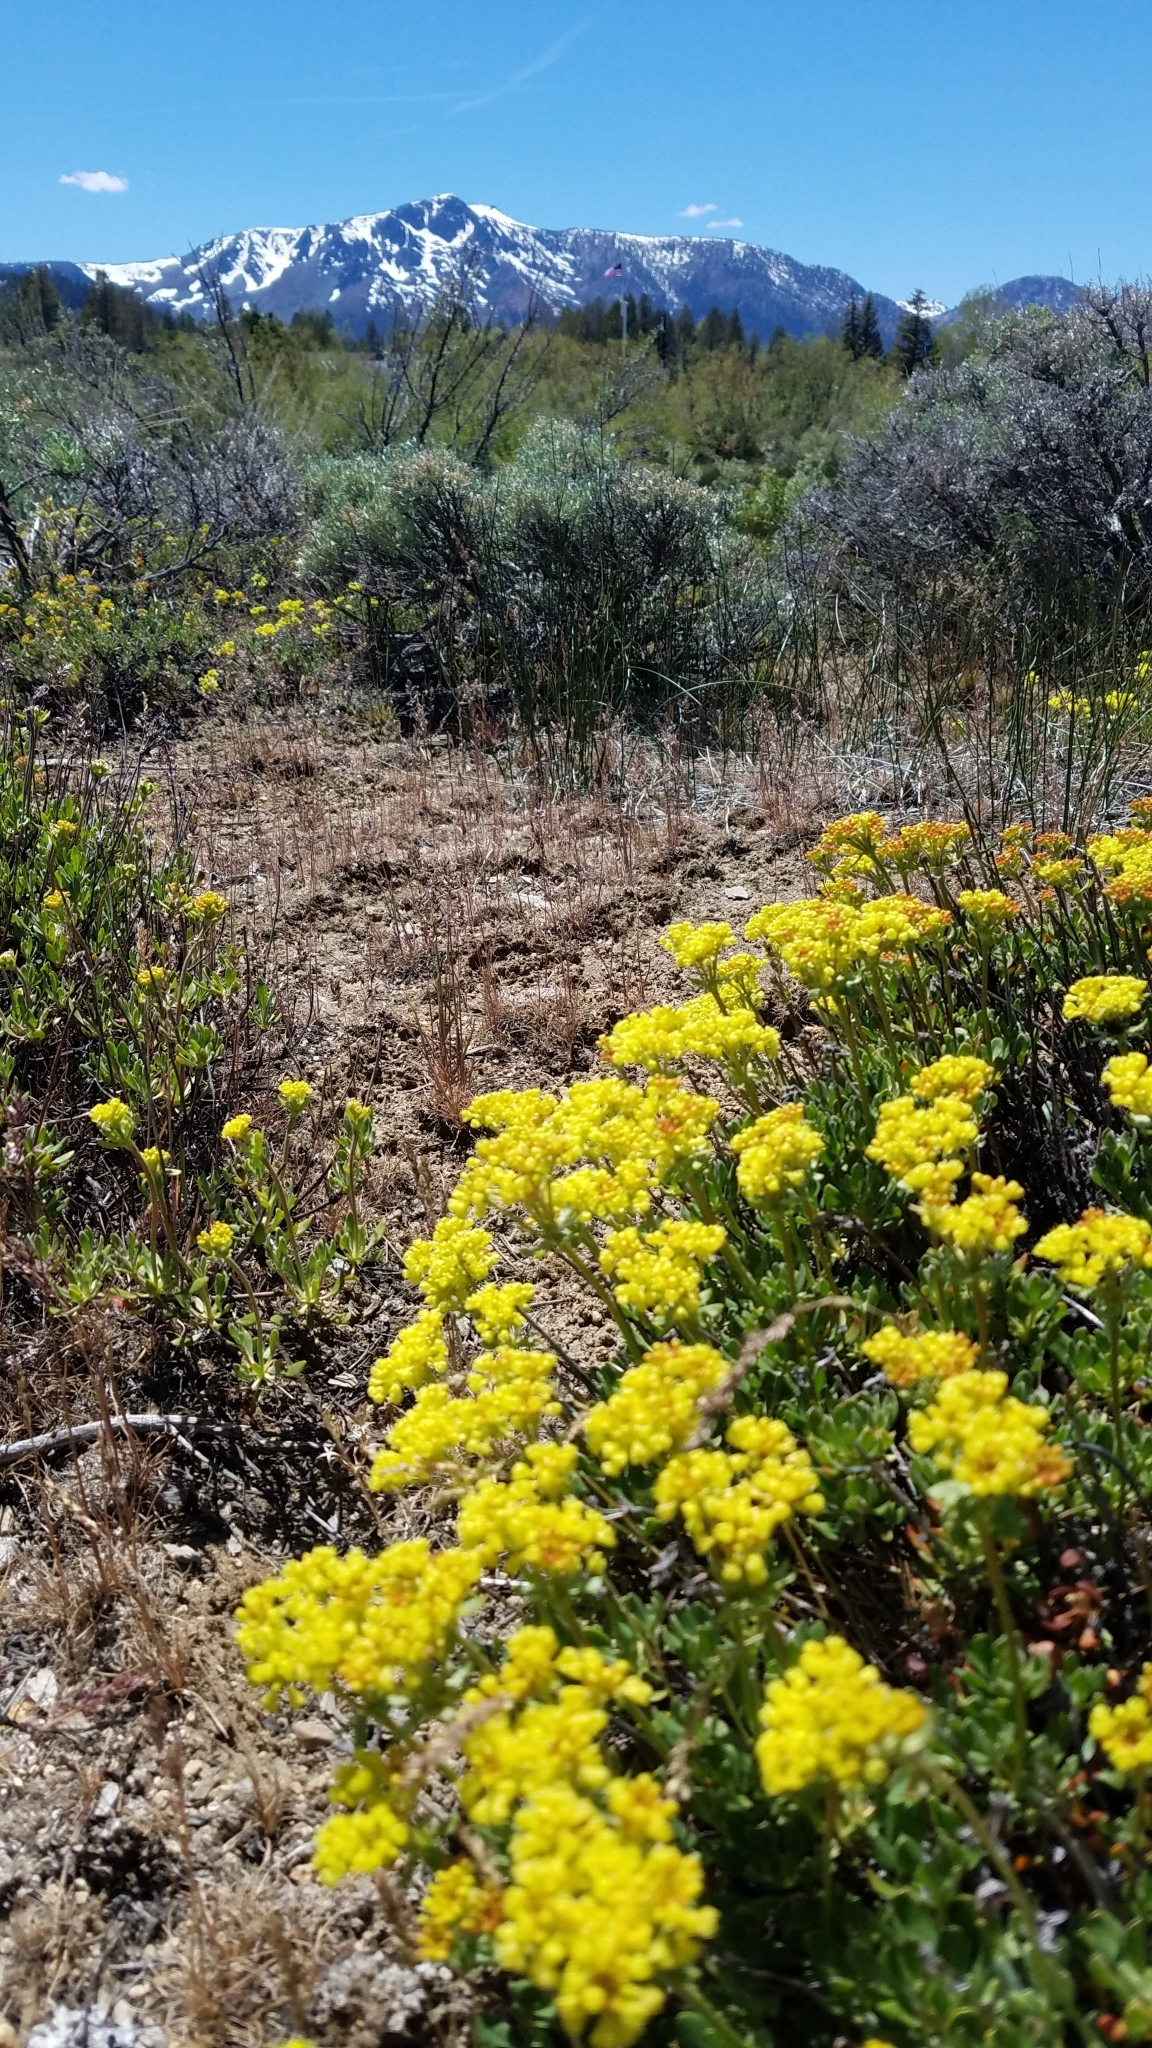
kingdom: Plantae
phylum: Tracheophyta
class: Magnoliopsida
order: Caryophyllales
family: Polygonaceae
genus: Eriogonum
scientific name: Eriogonum umbellatum
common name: Sulfur-buckwheat
